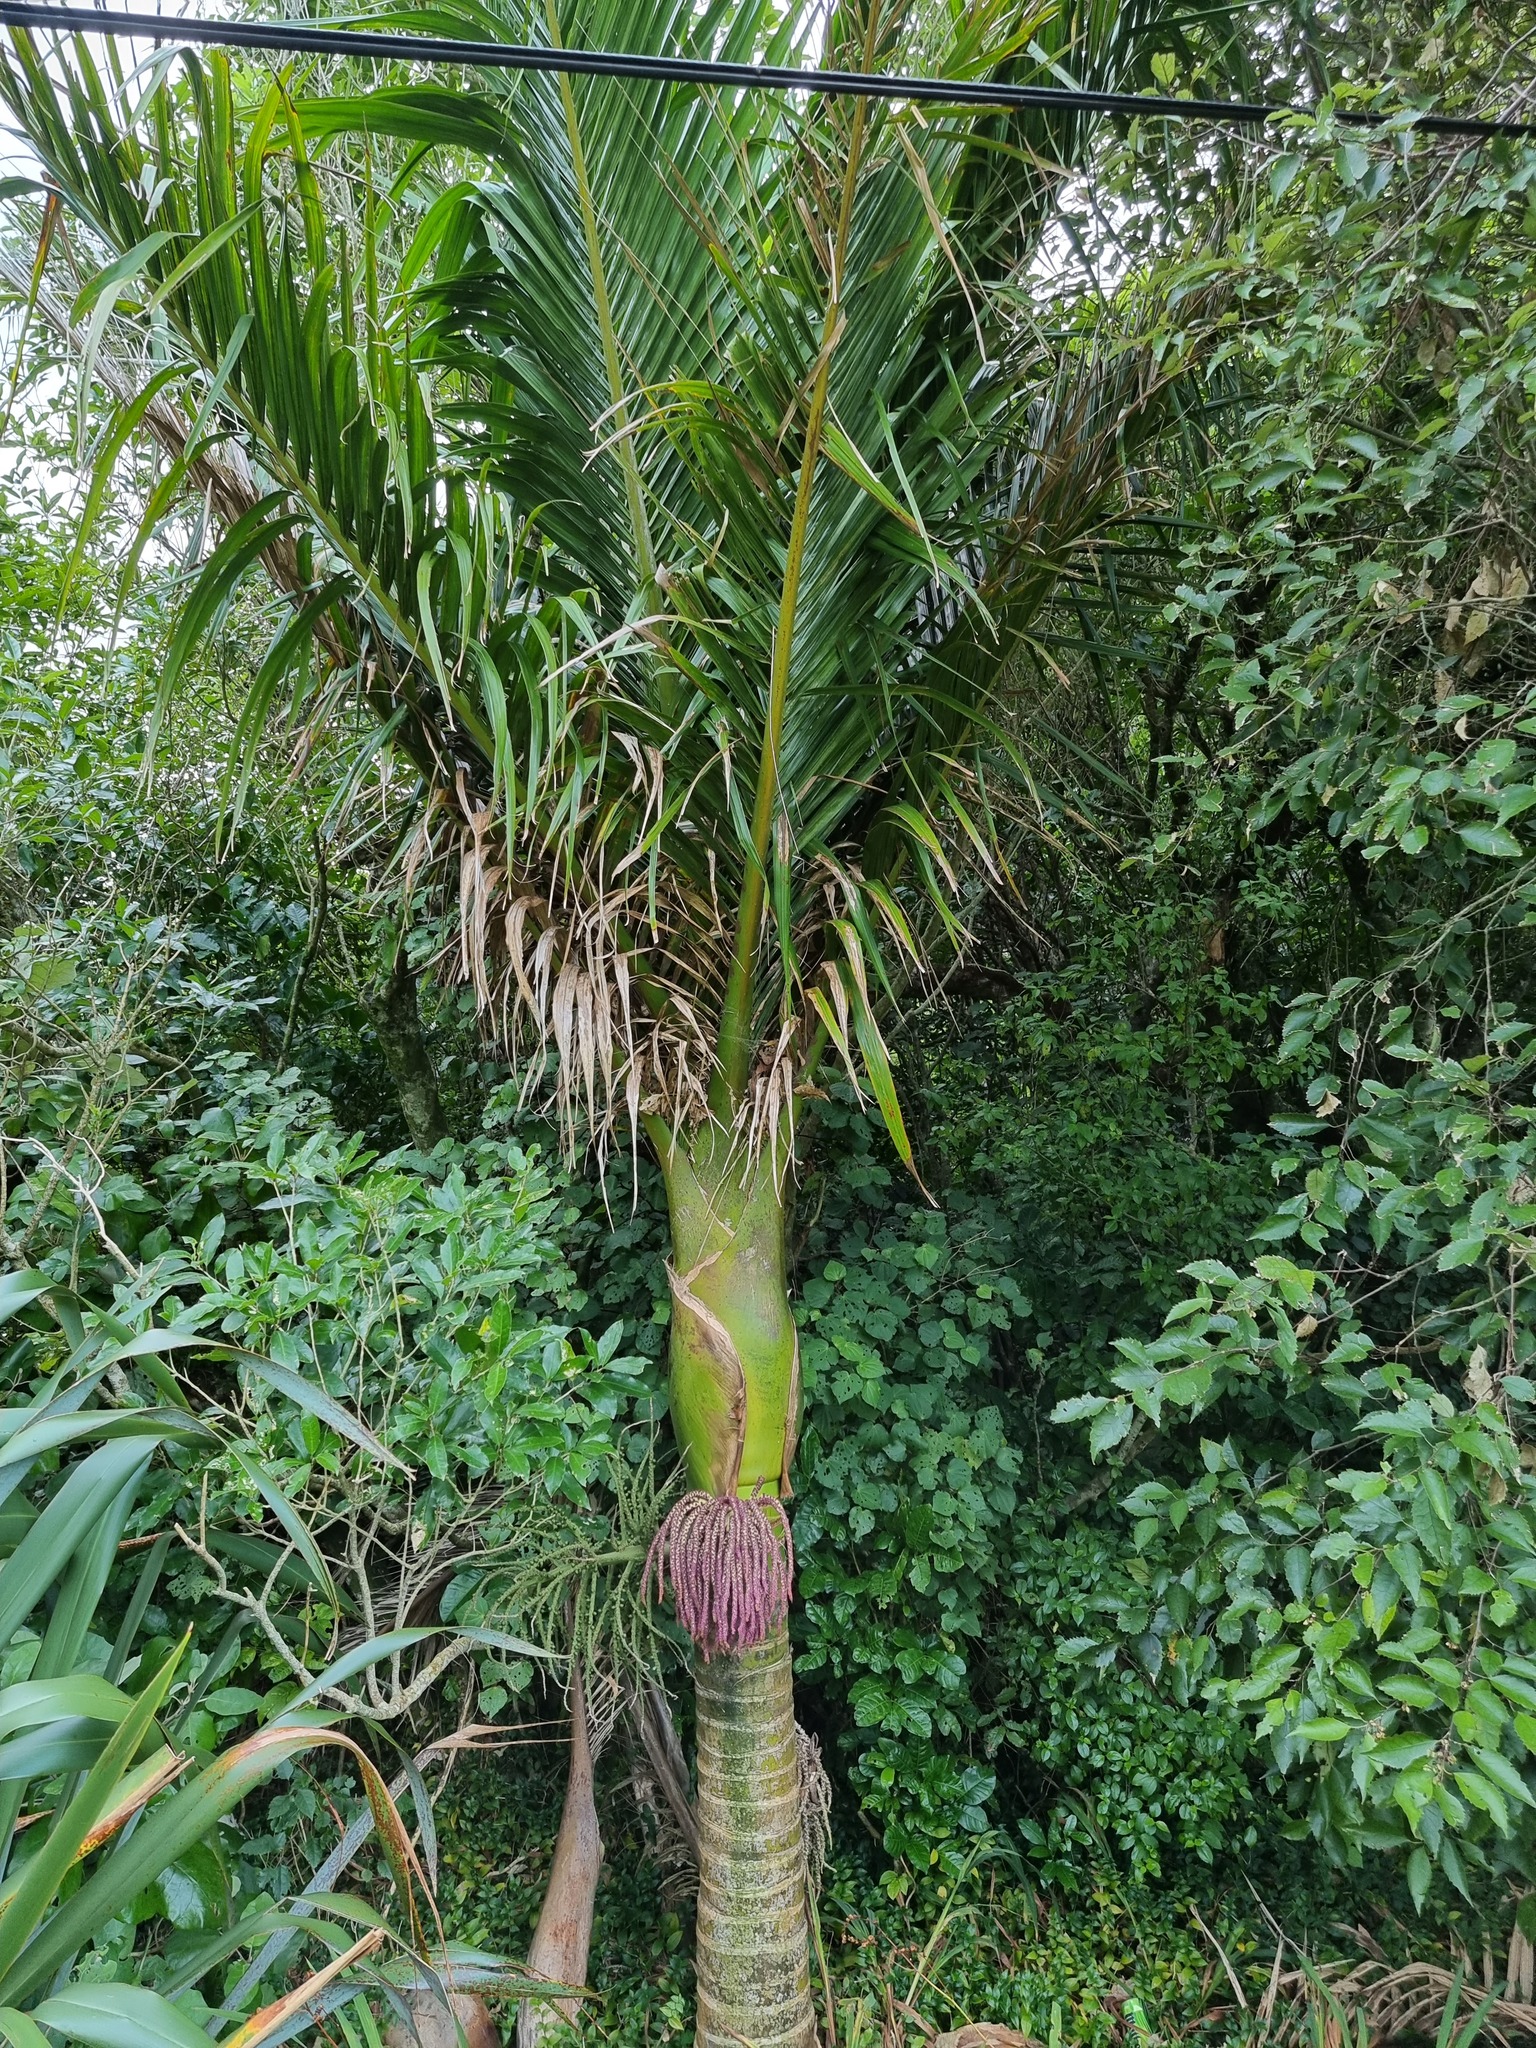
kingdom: Plantae
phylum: Tracheophyta
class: Liliopsida
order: Arecales
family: Arecaceae
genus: Rhopalostylis
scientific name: Rhopalostylis sapida
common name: Feather-duster palm
